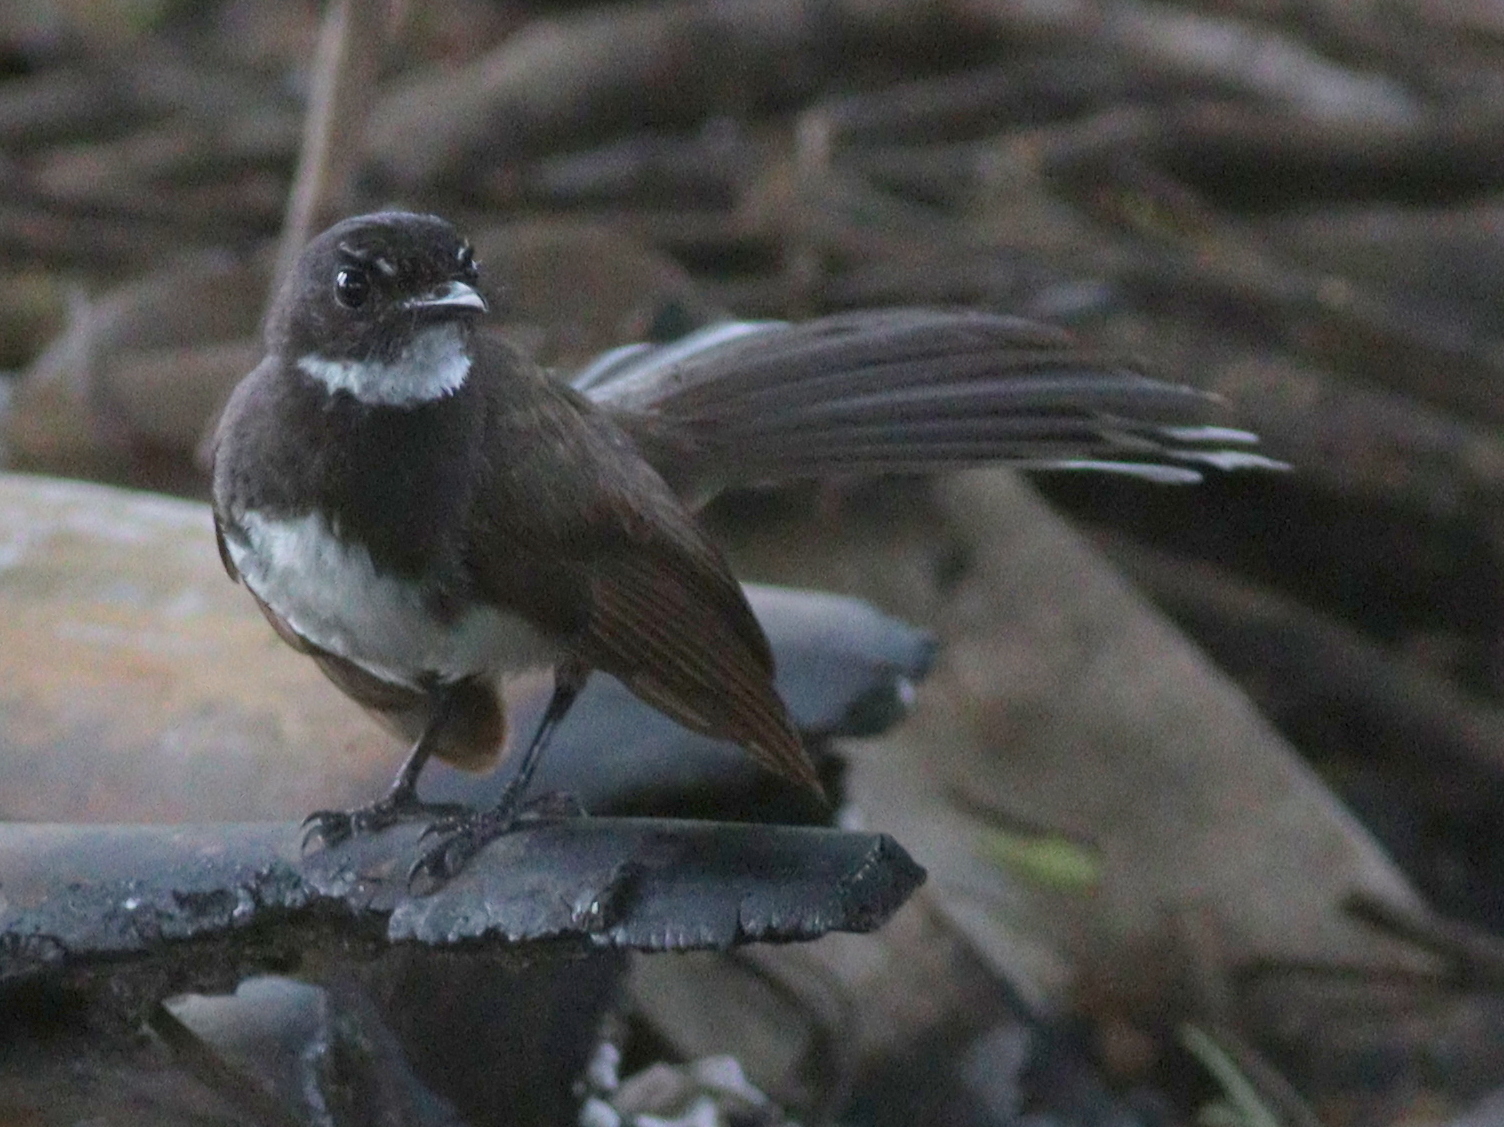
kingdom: Animalia
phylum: Chordata
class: Aves
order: Passeriformes
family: Rhipiduridae
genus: Rhipidura
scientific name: Rhipidura javanica
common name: Pied fantail
